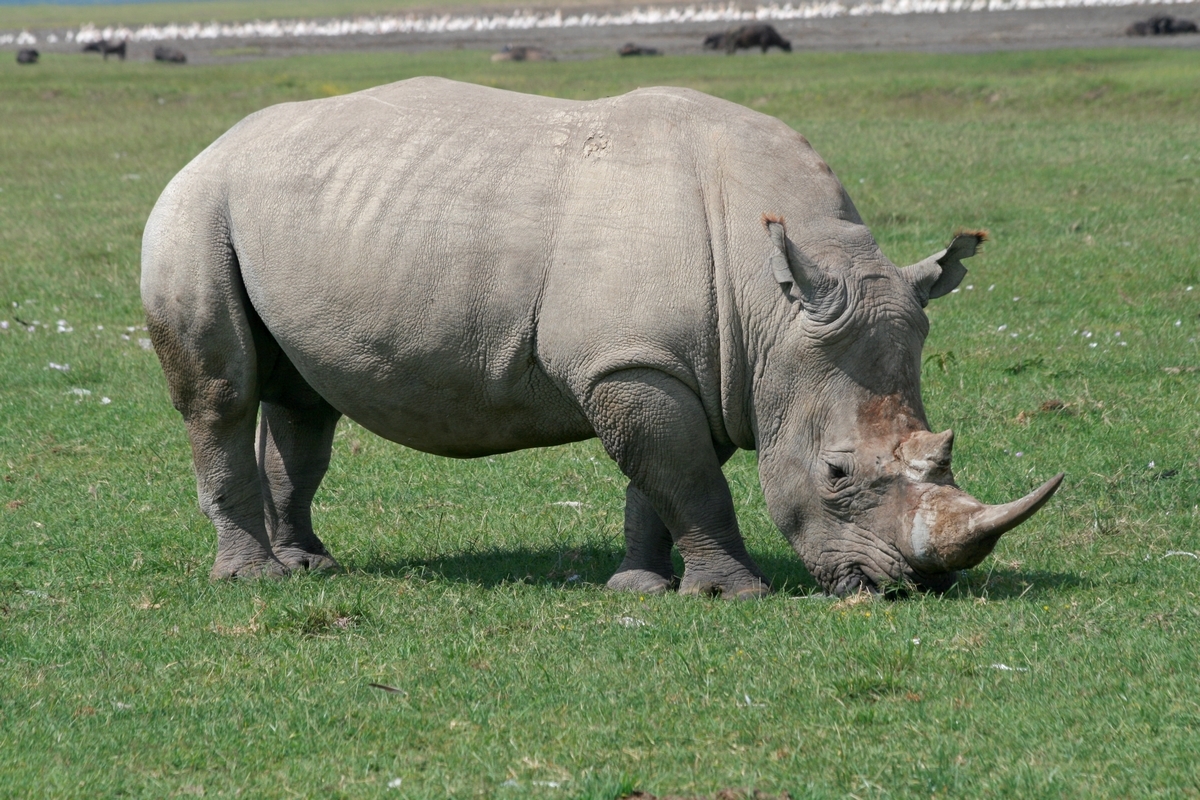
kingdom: Animalia
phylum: Chordata
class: Mammalia
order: Perissodactyla
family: Rhinocerotidae
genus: Ceratotherium
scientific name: Ceratotherium simum
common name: White rhinoceros
